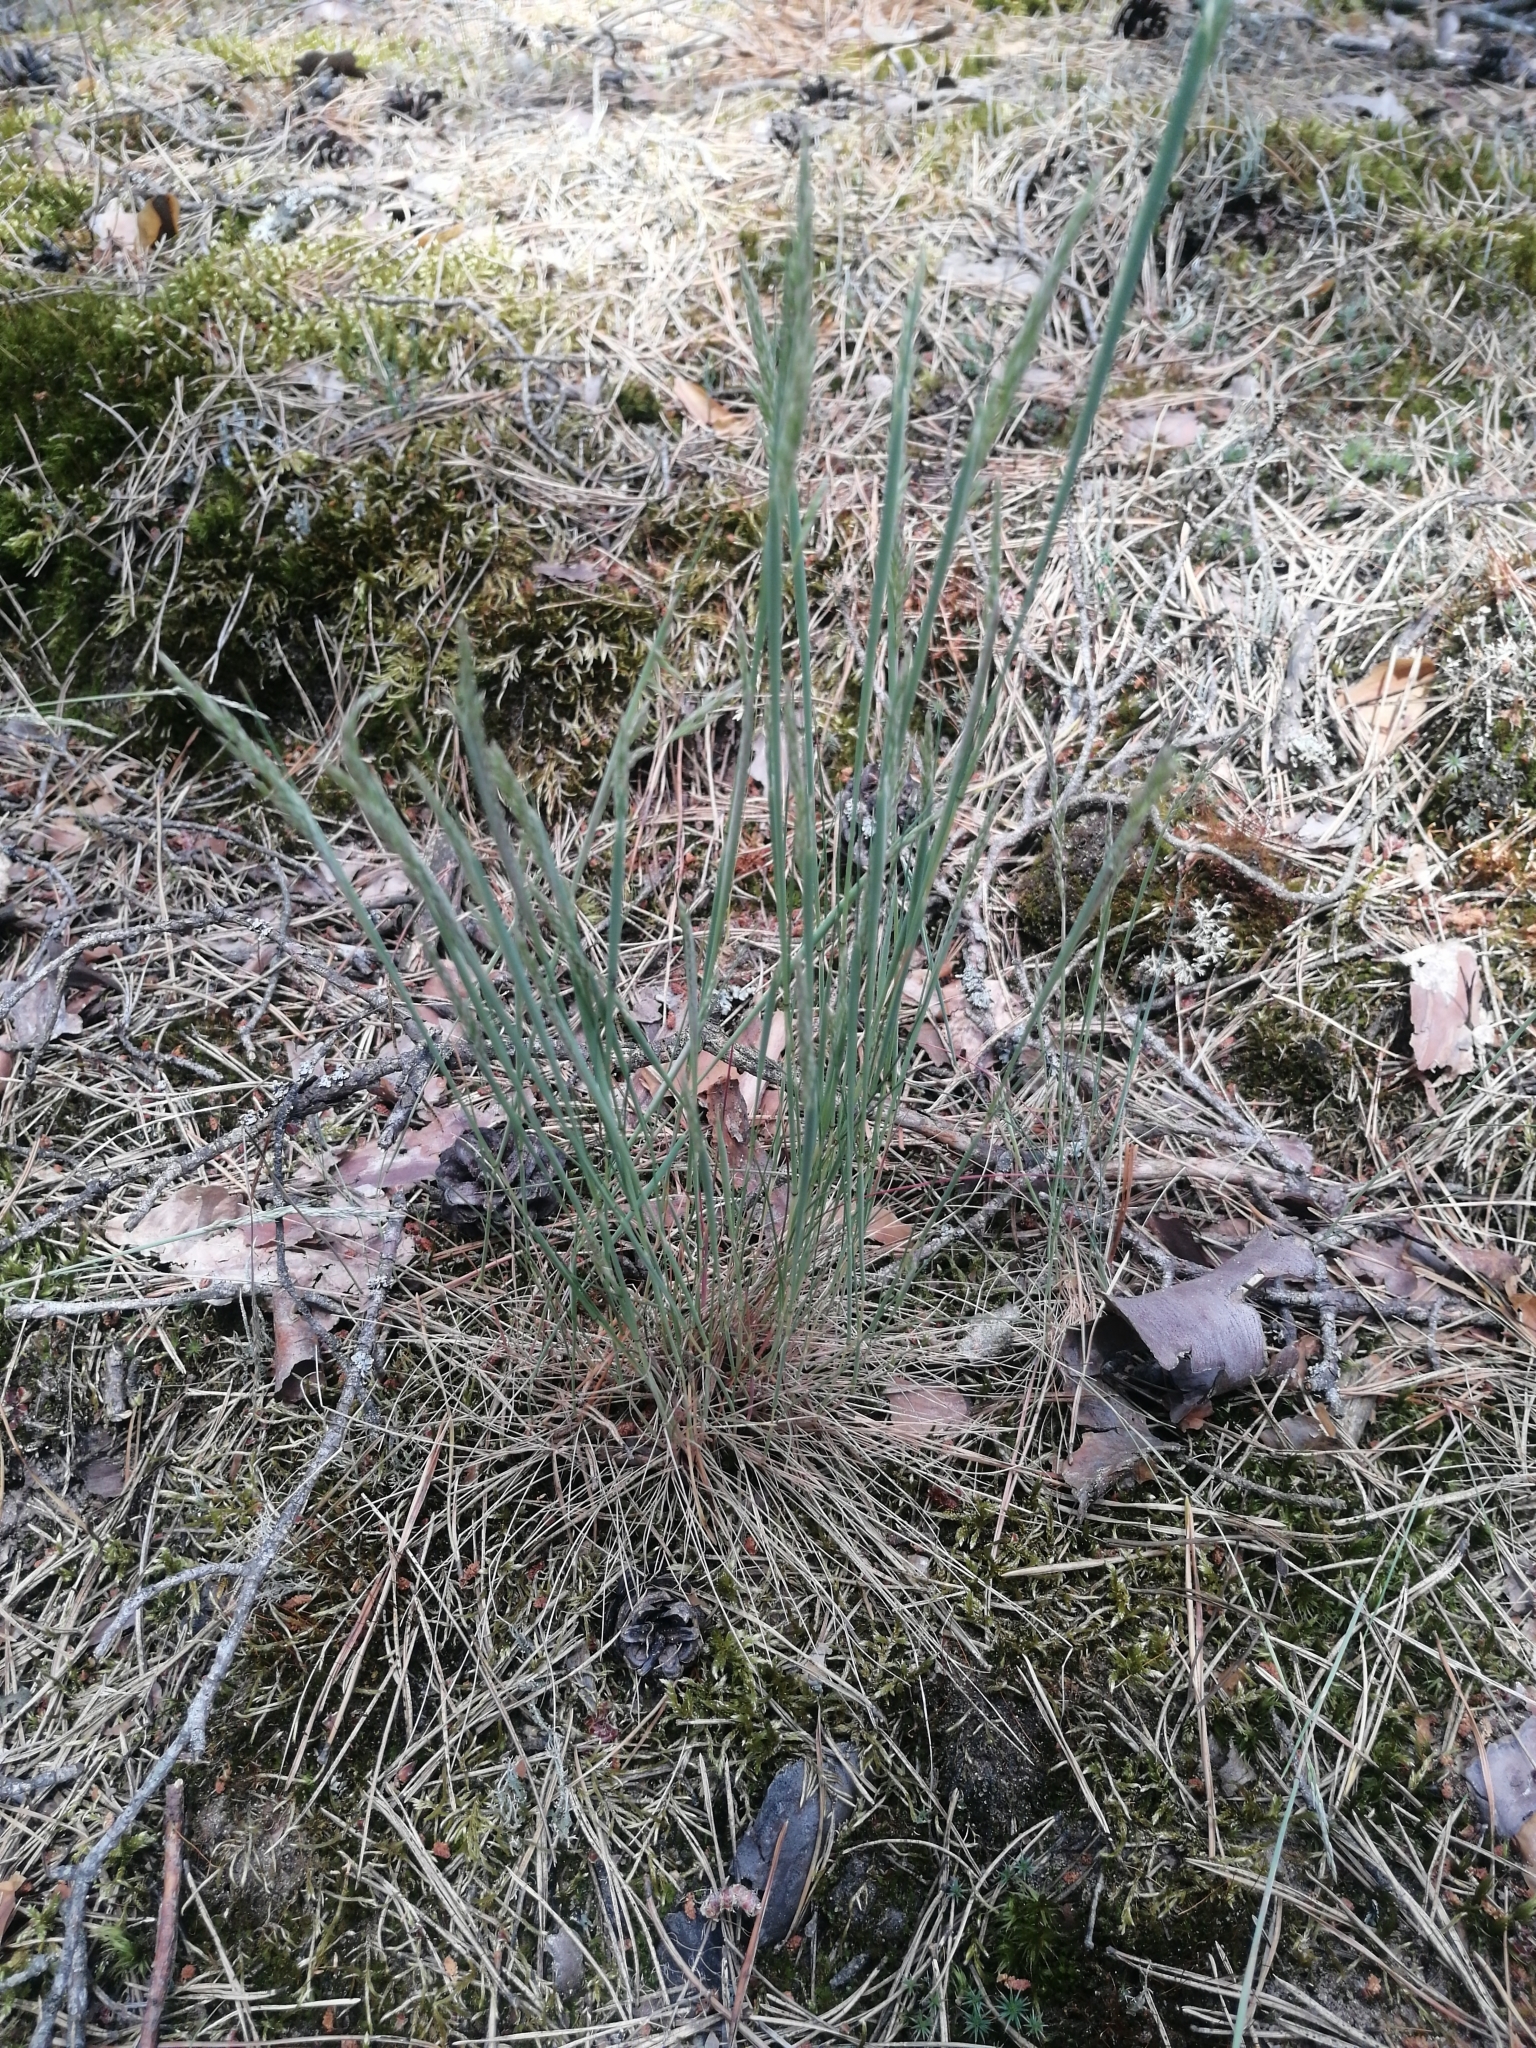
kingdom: Plantae
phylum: Tracheophyta
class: Liliopsida
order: Poales
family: Poaceae
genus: Corynephorus
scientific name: Corynephorus canescens
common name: Grey hair-grass
